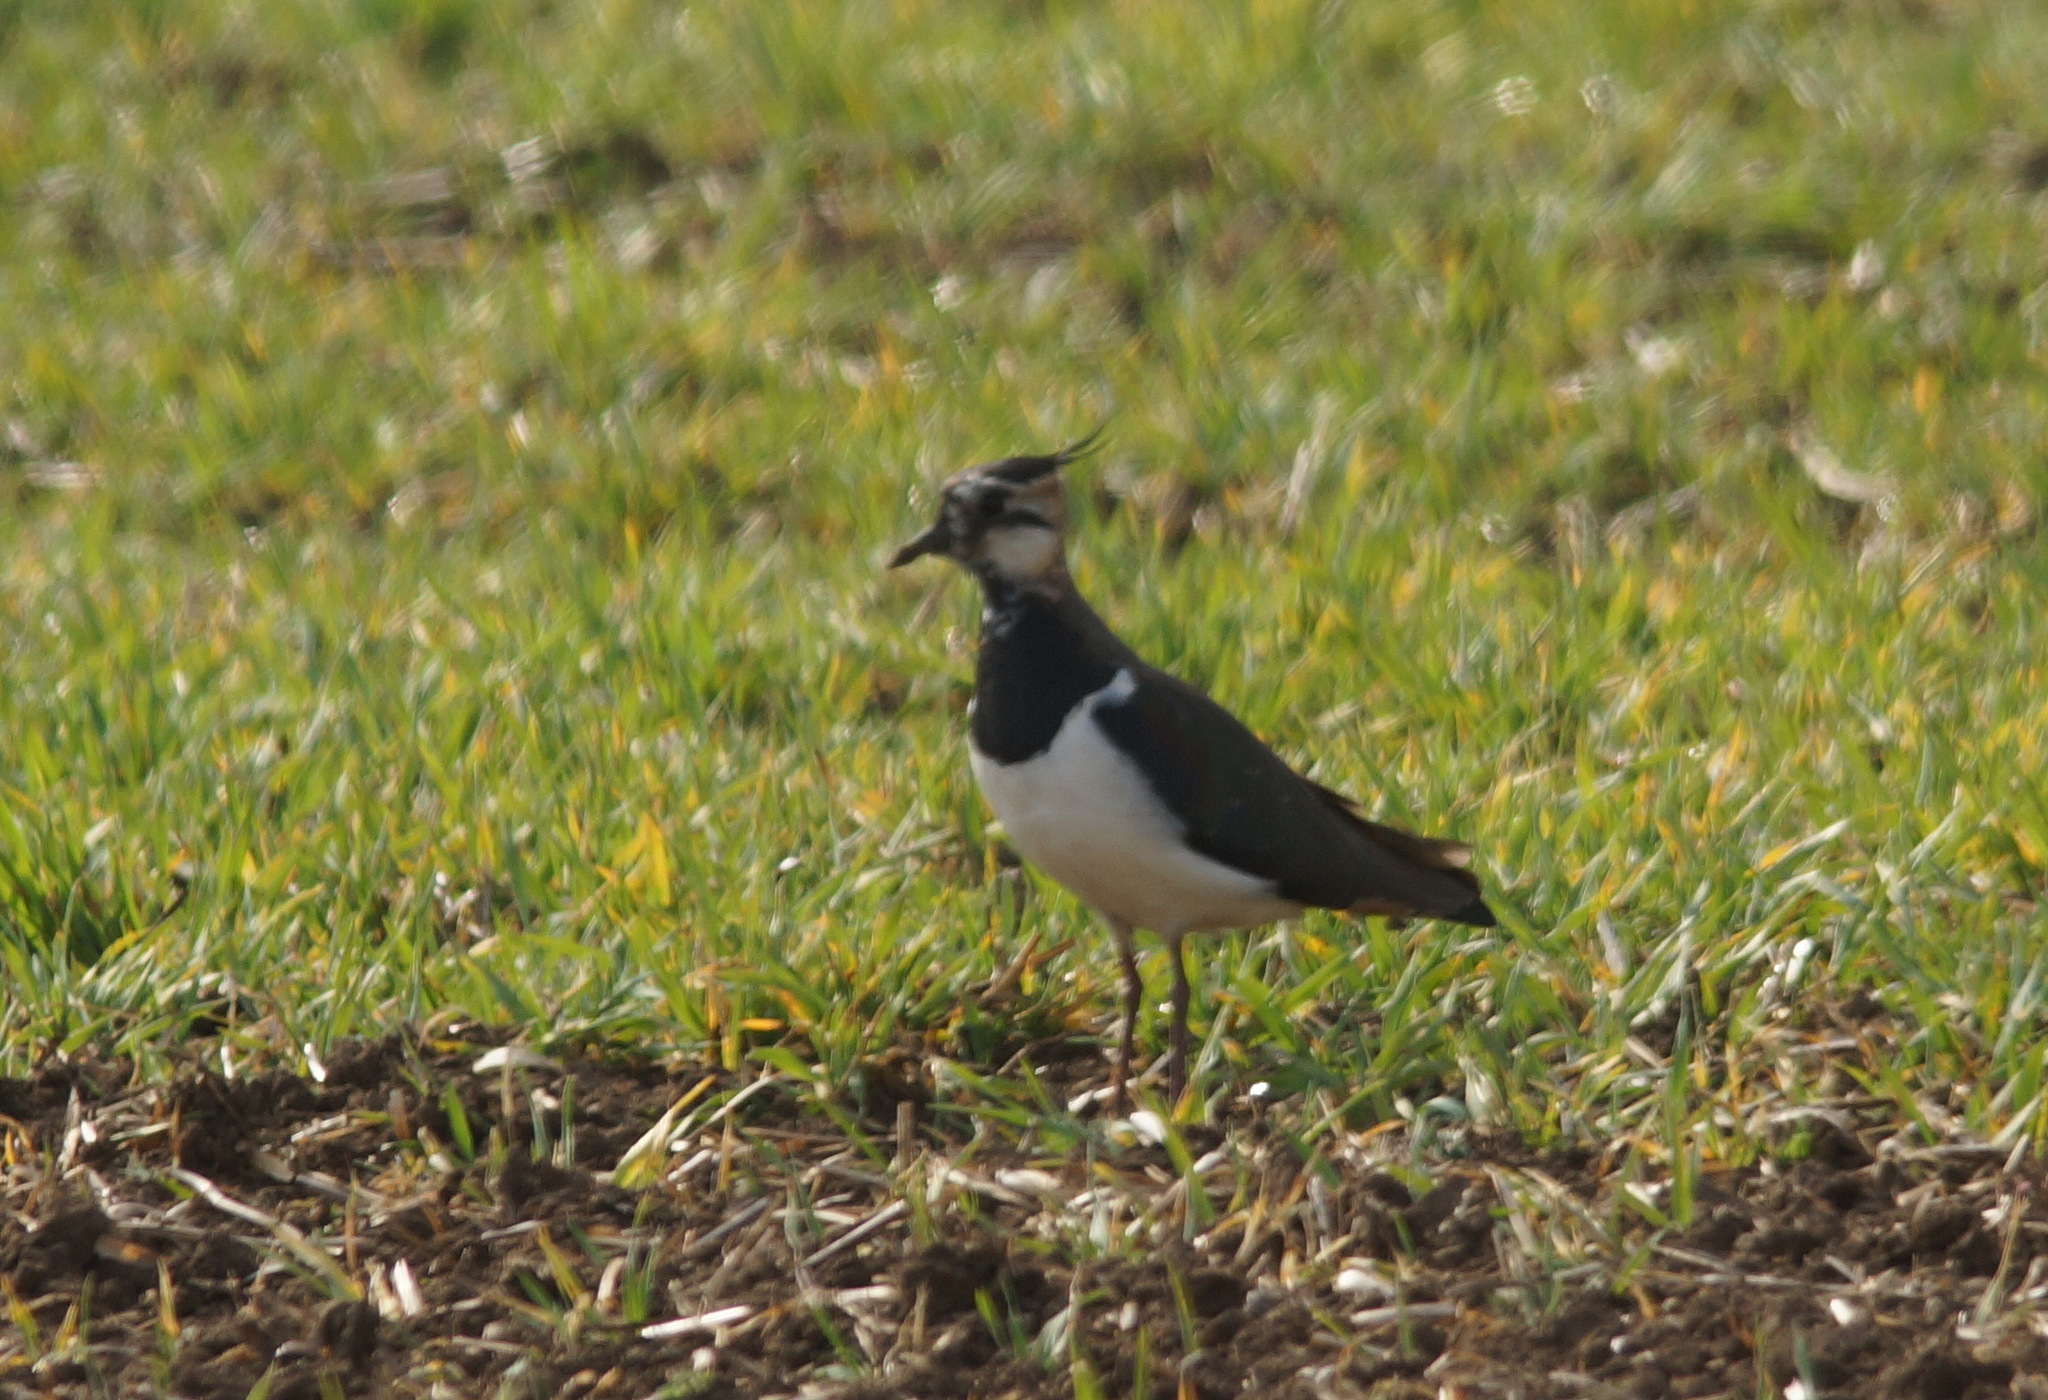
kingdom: Animalia
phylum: Chordata
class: Aves
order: Charadriiformes
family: Charadriidae
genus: Vanellus
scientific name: Vanellus vanellus
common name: Northern lapwing
